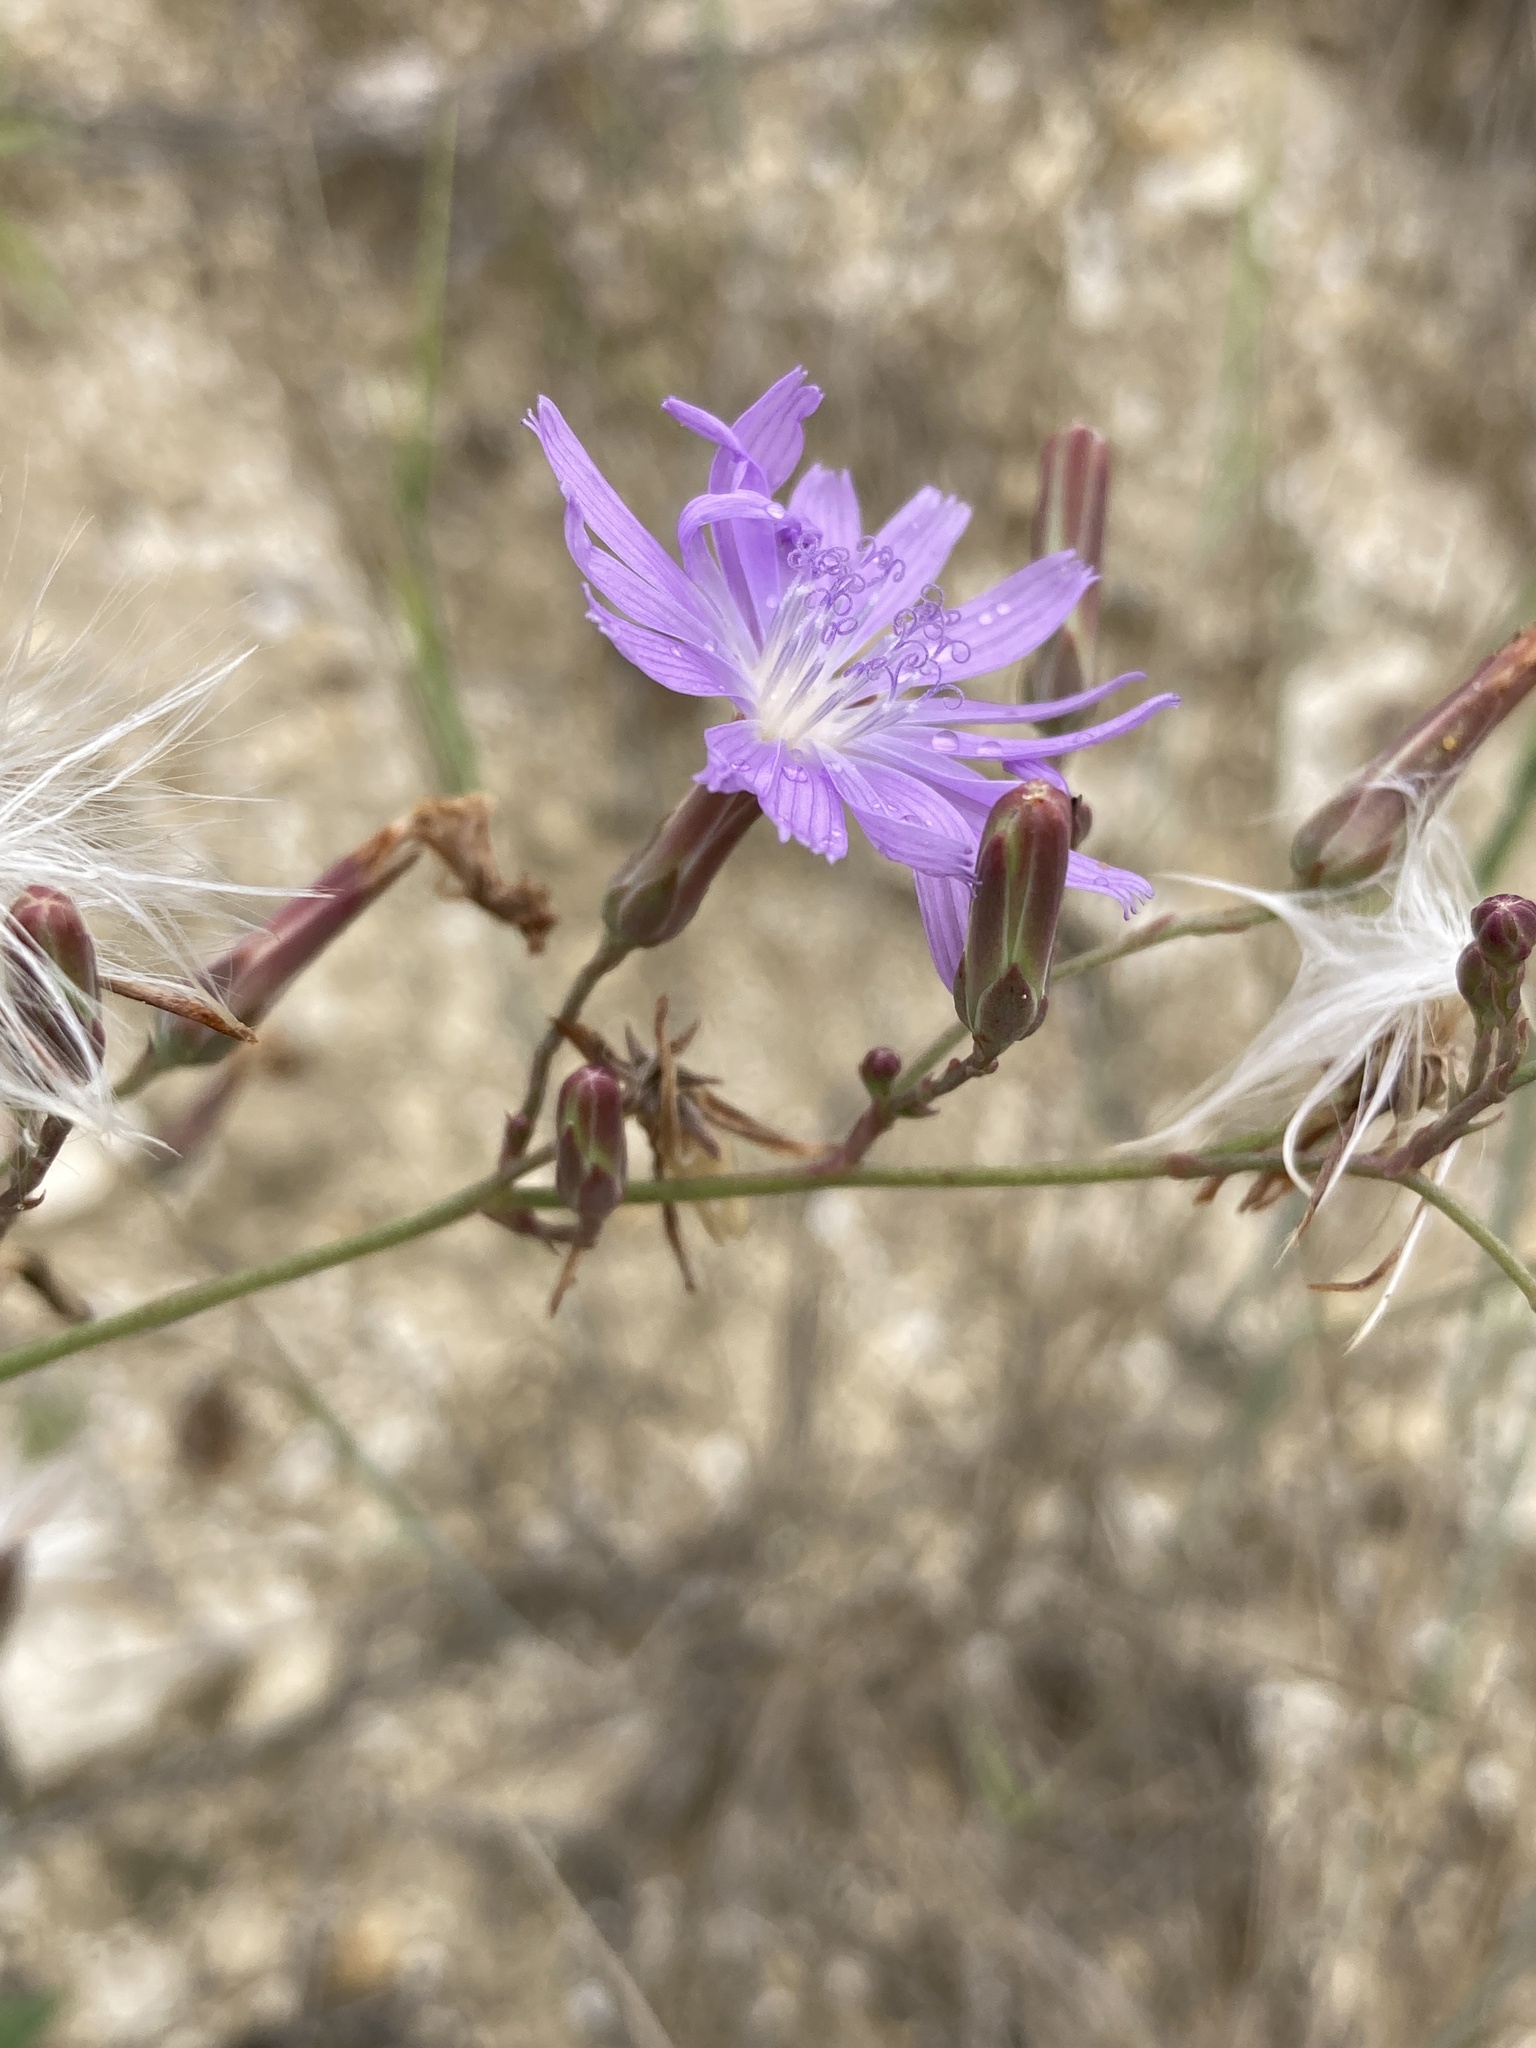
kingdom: Plantae
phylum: Tracheophyta
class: Magnoliopsida
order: Asterales
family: Asteraceae
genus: Lactuca
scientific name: Lactuca tatarica
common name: Blue lettuce
